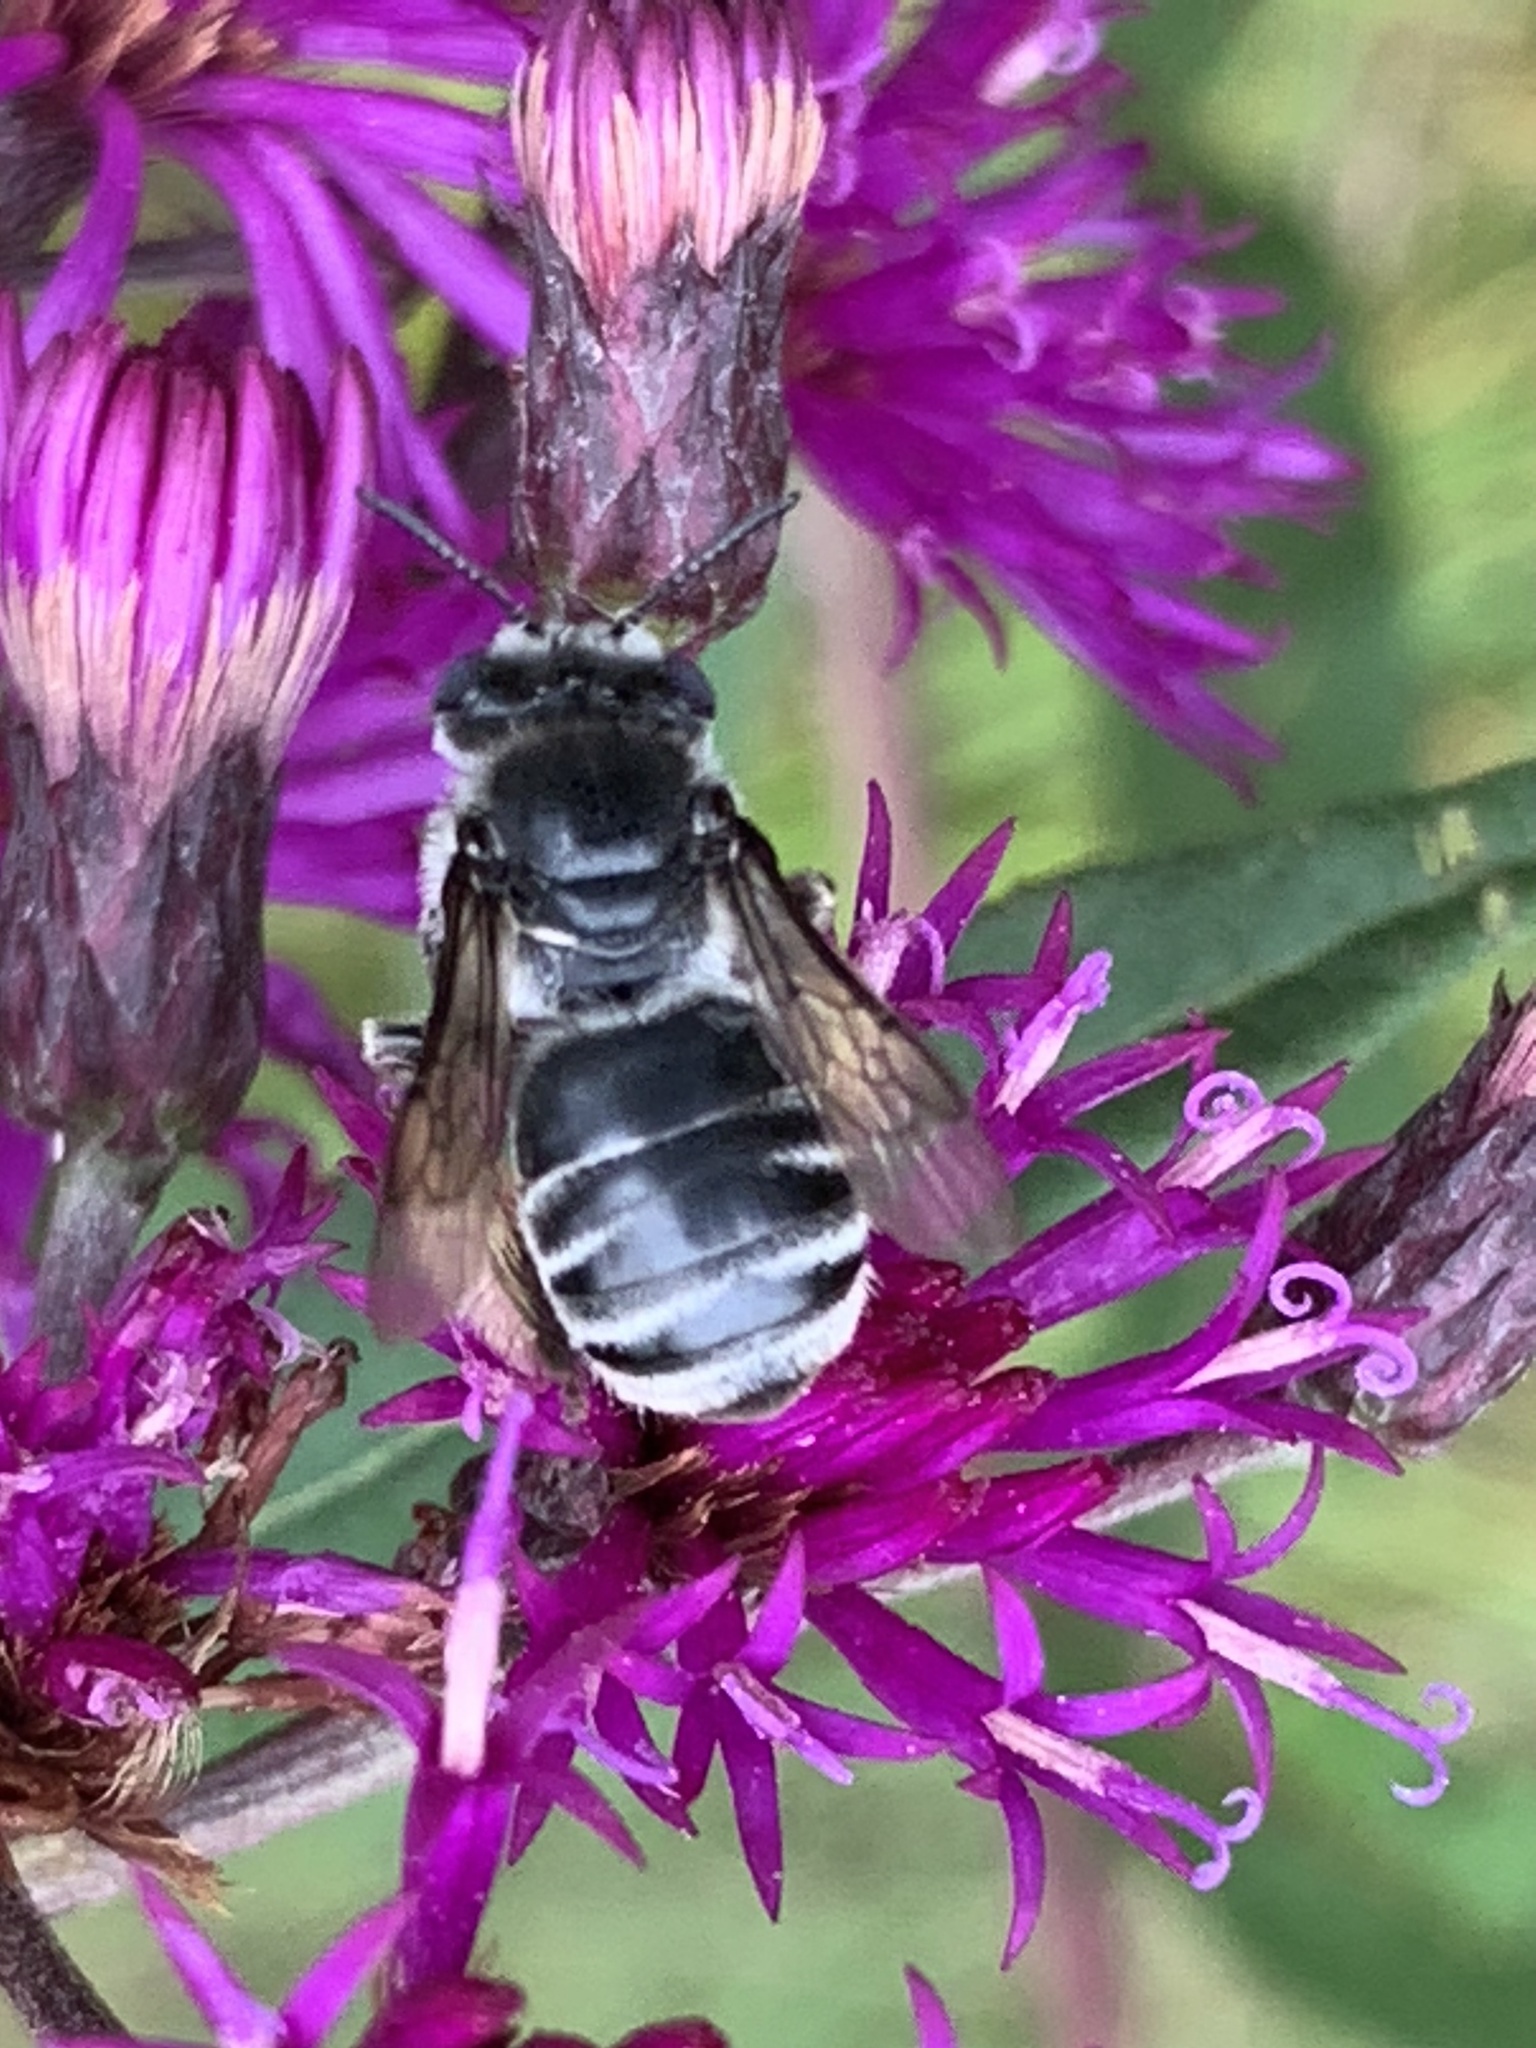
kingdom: Animalia
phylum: Arthropoda
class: Insecta
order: Hymenoptera
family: Apidae
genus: Melissodes
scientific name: Melissodes denticulatus
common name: Denticulate long-horned bee
